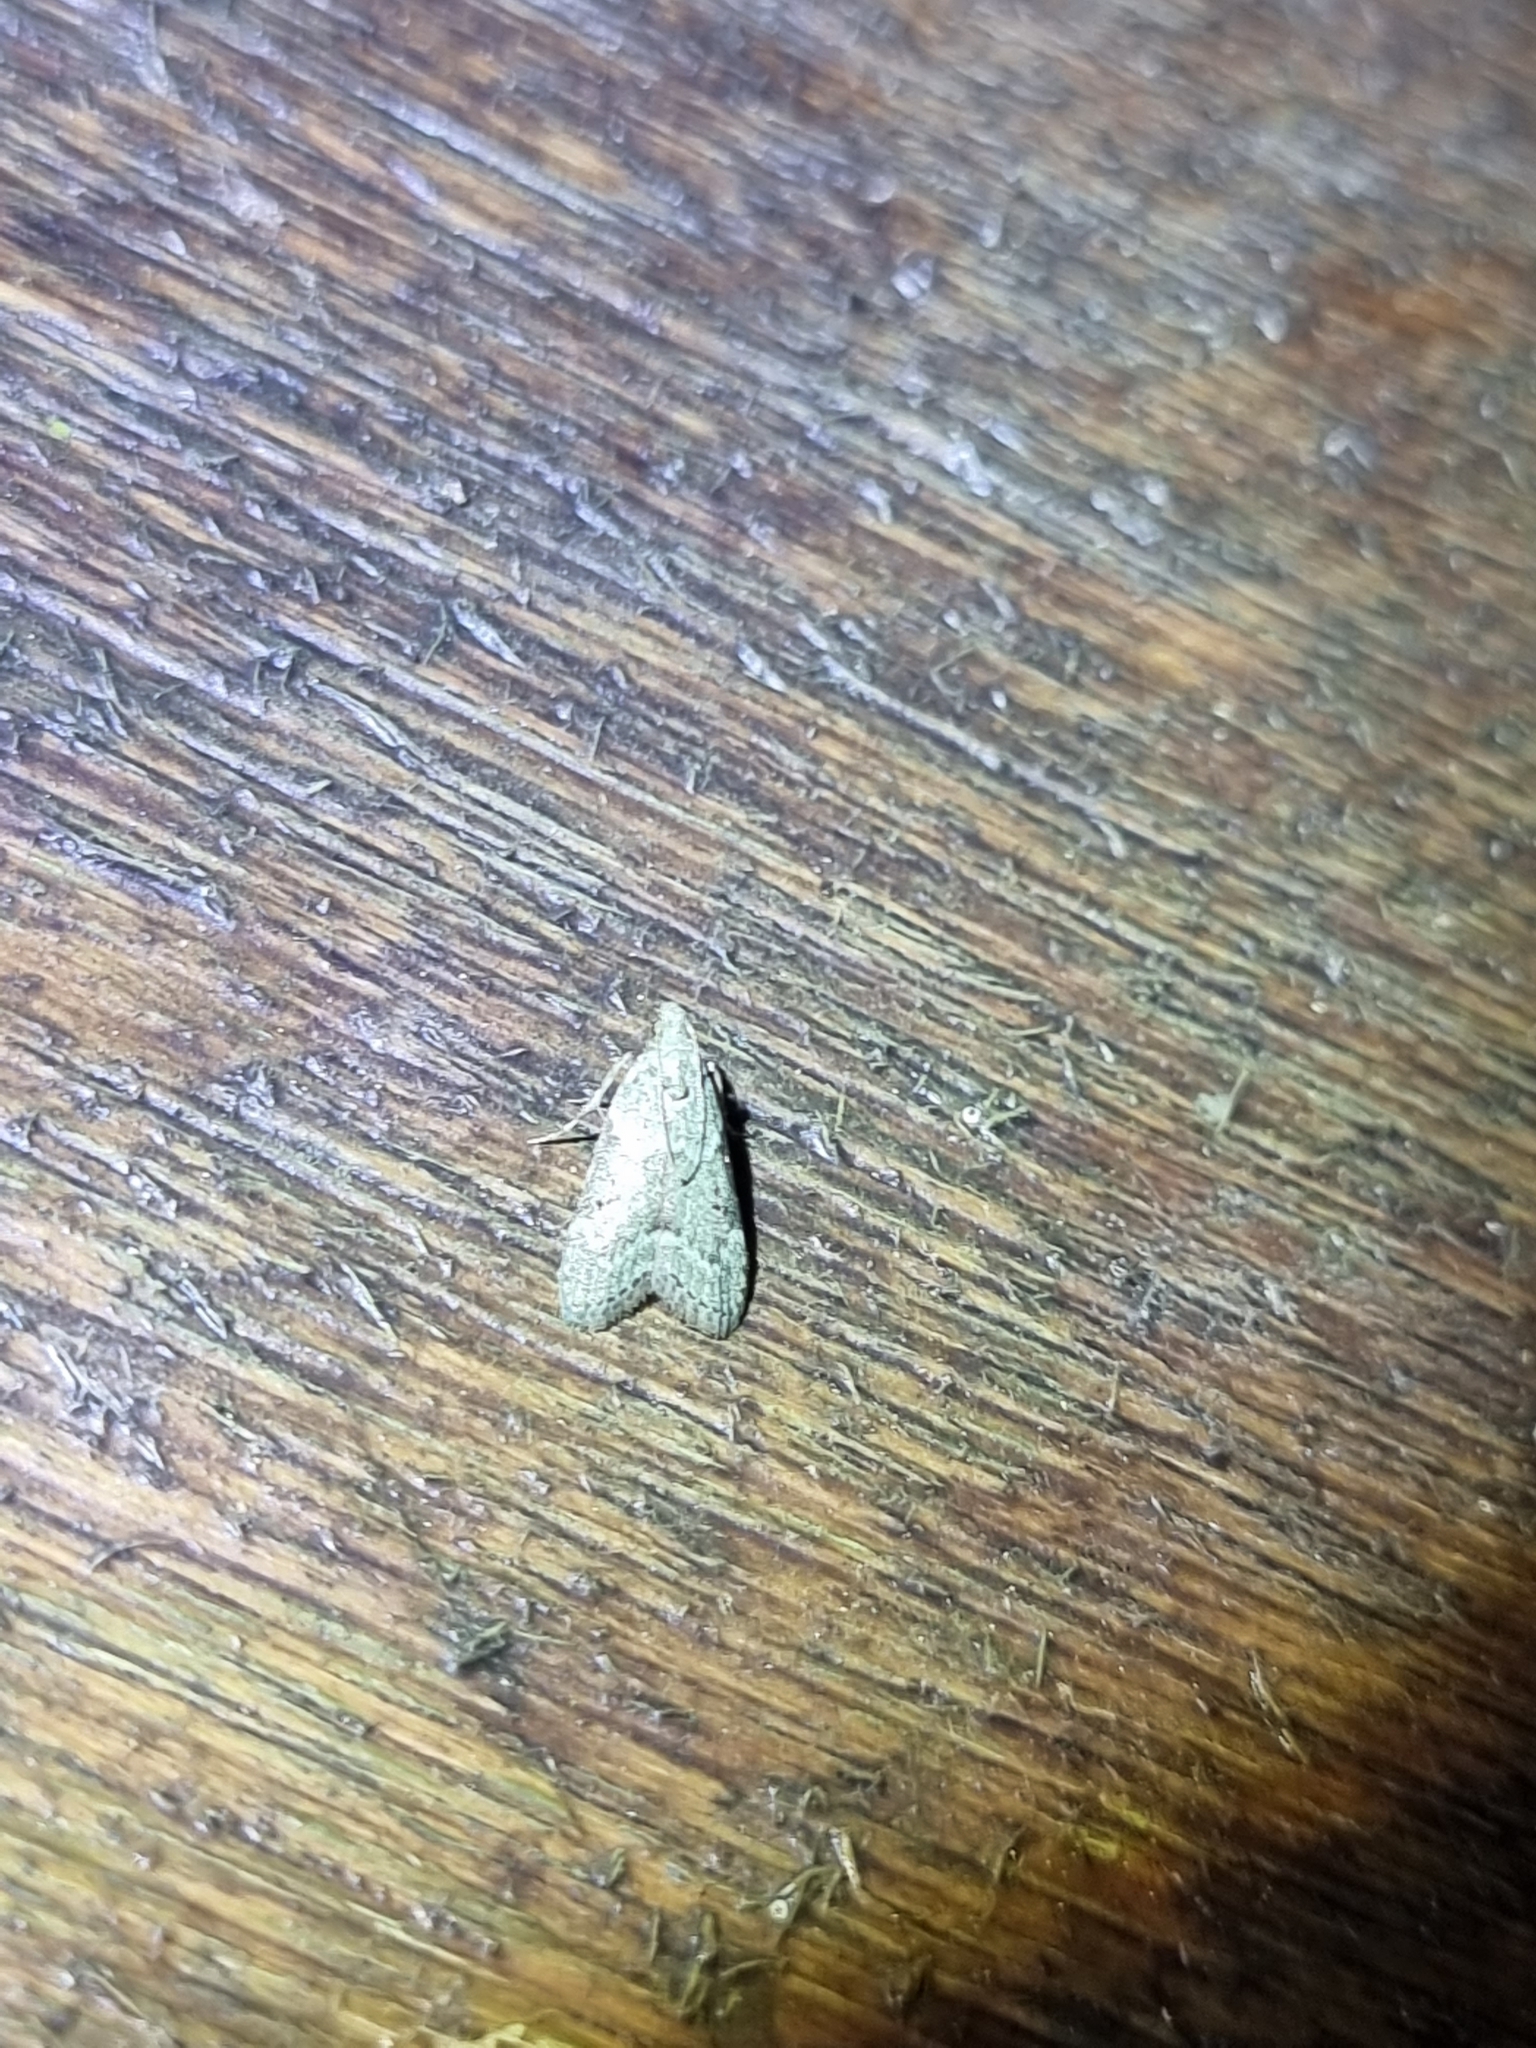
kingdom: Animalia
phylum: Arthropoda
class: Insecta
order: Lepidoptera
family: Nolidae
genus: Nola
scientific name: Nola squalida
